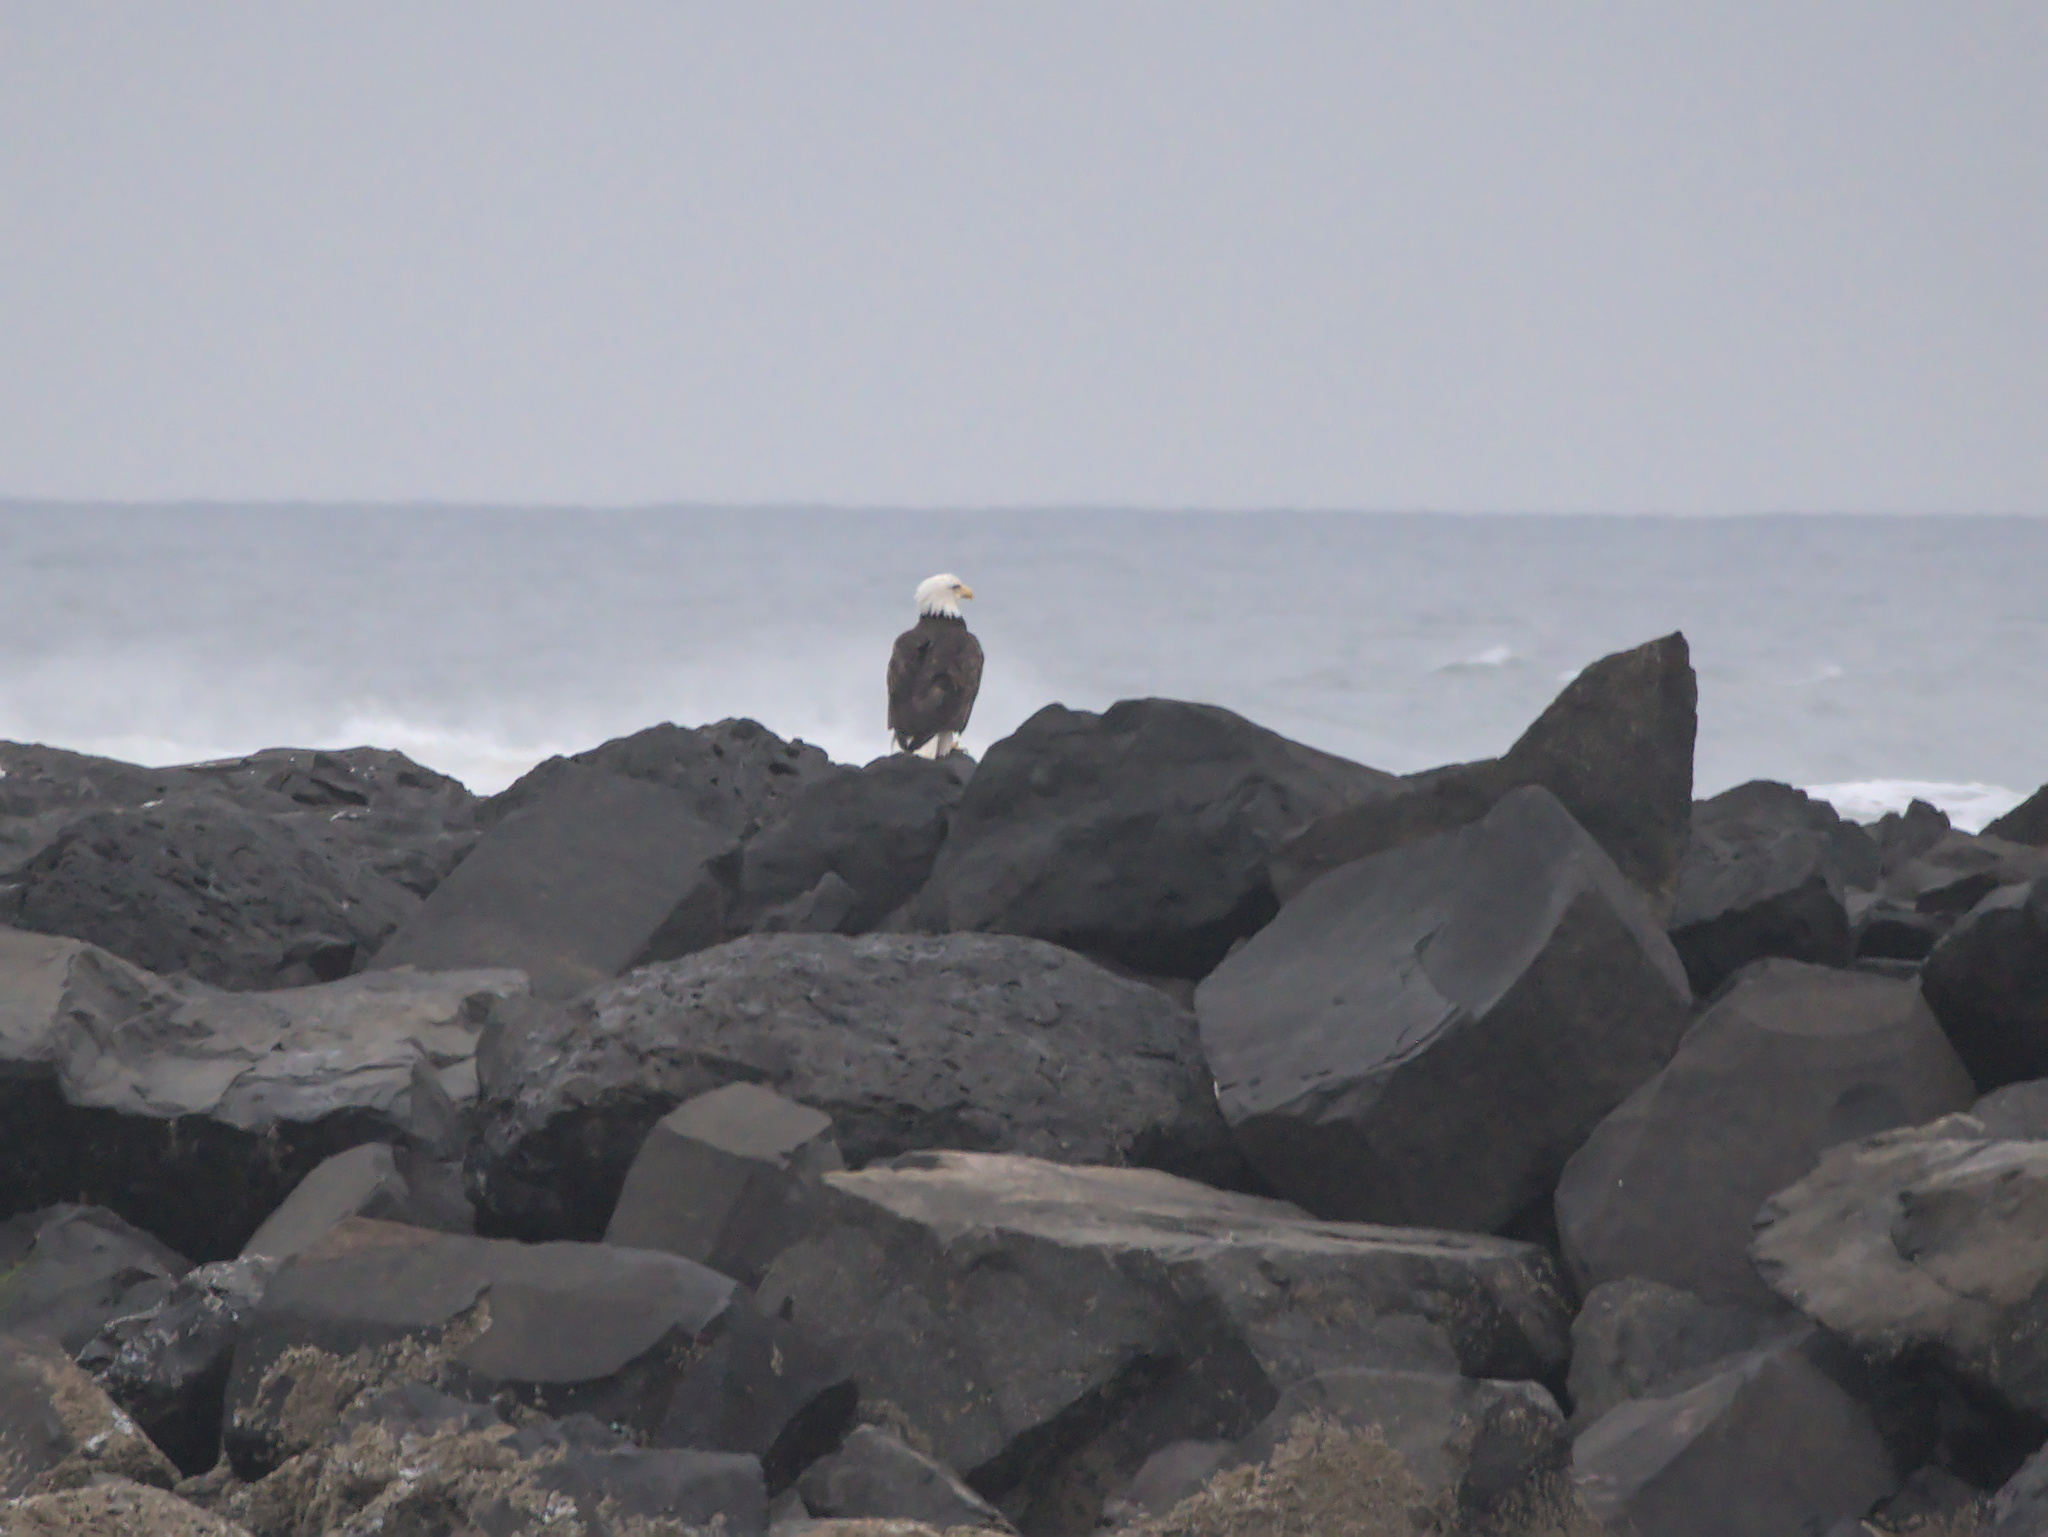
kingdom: Animalia
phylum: Chordata
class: Aves
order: Accipitriformes
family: Accipitridae
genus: Haliaeetus
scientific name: Haliaeetus leucocephalus
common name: Bald eagle
